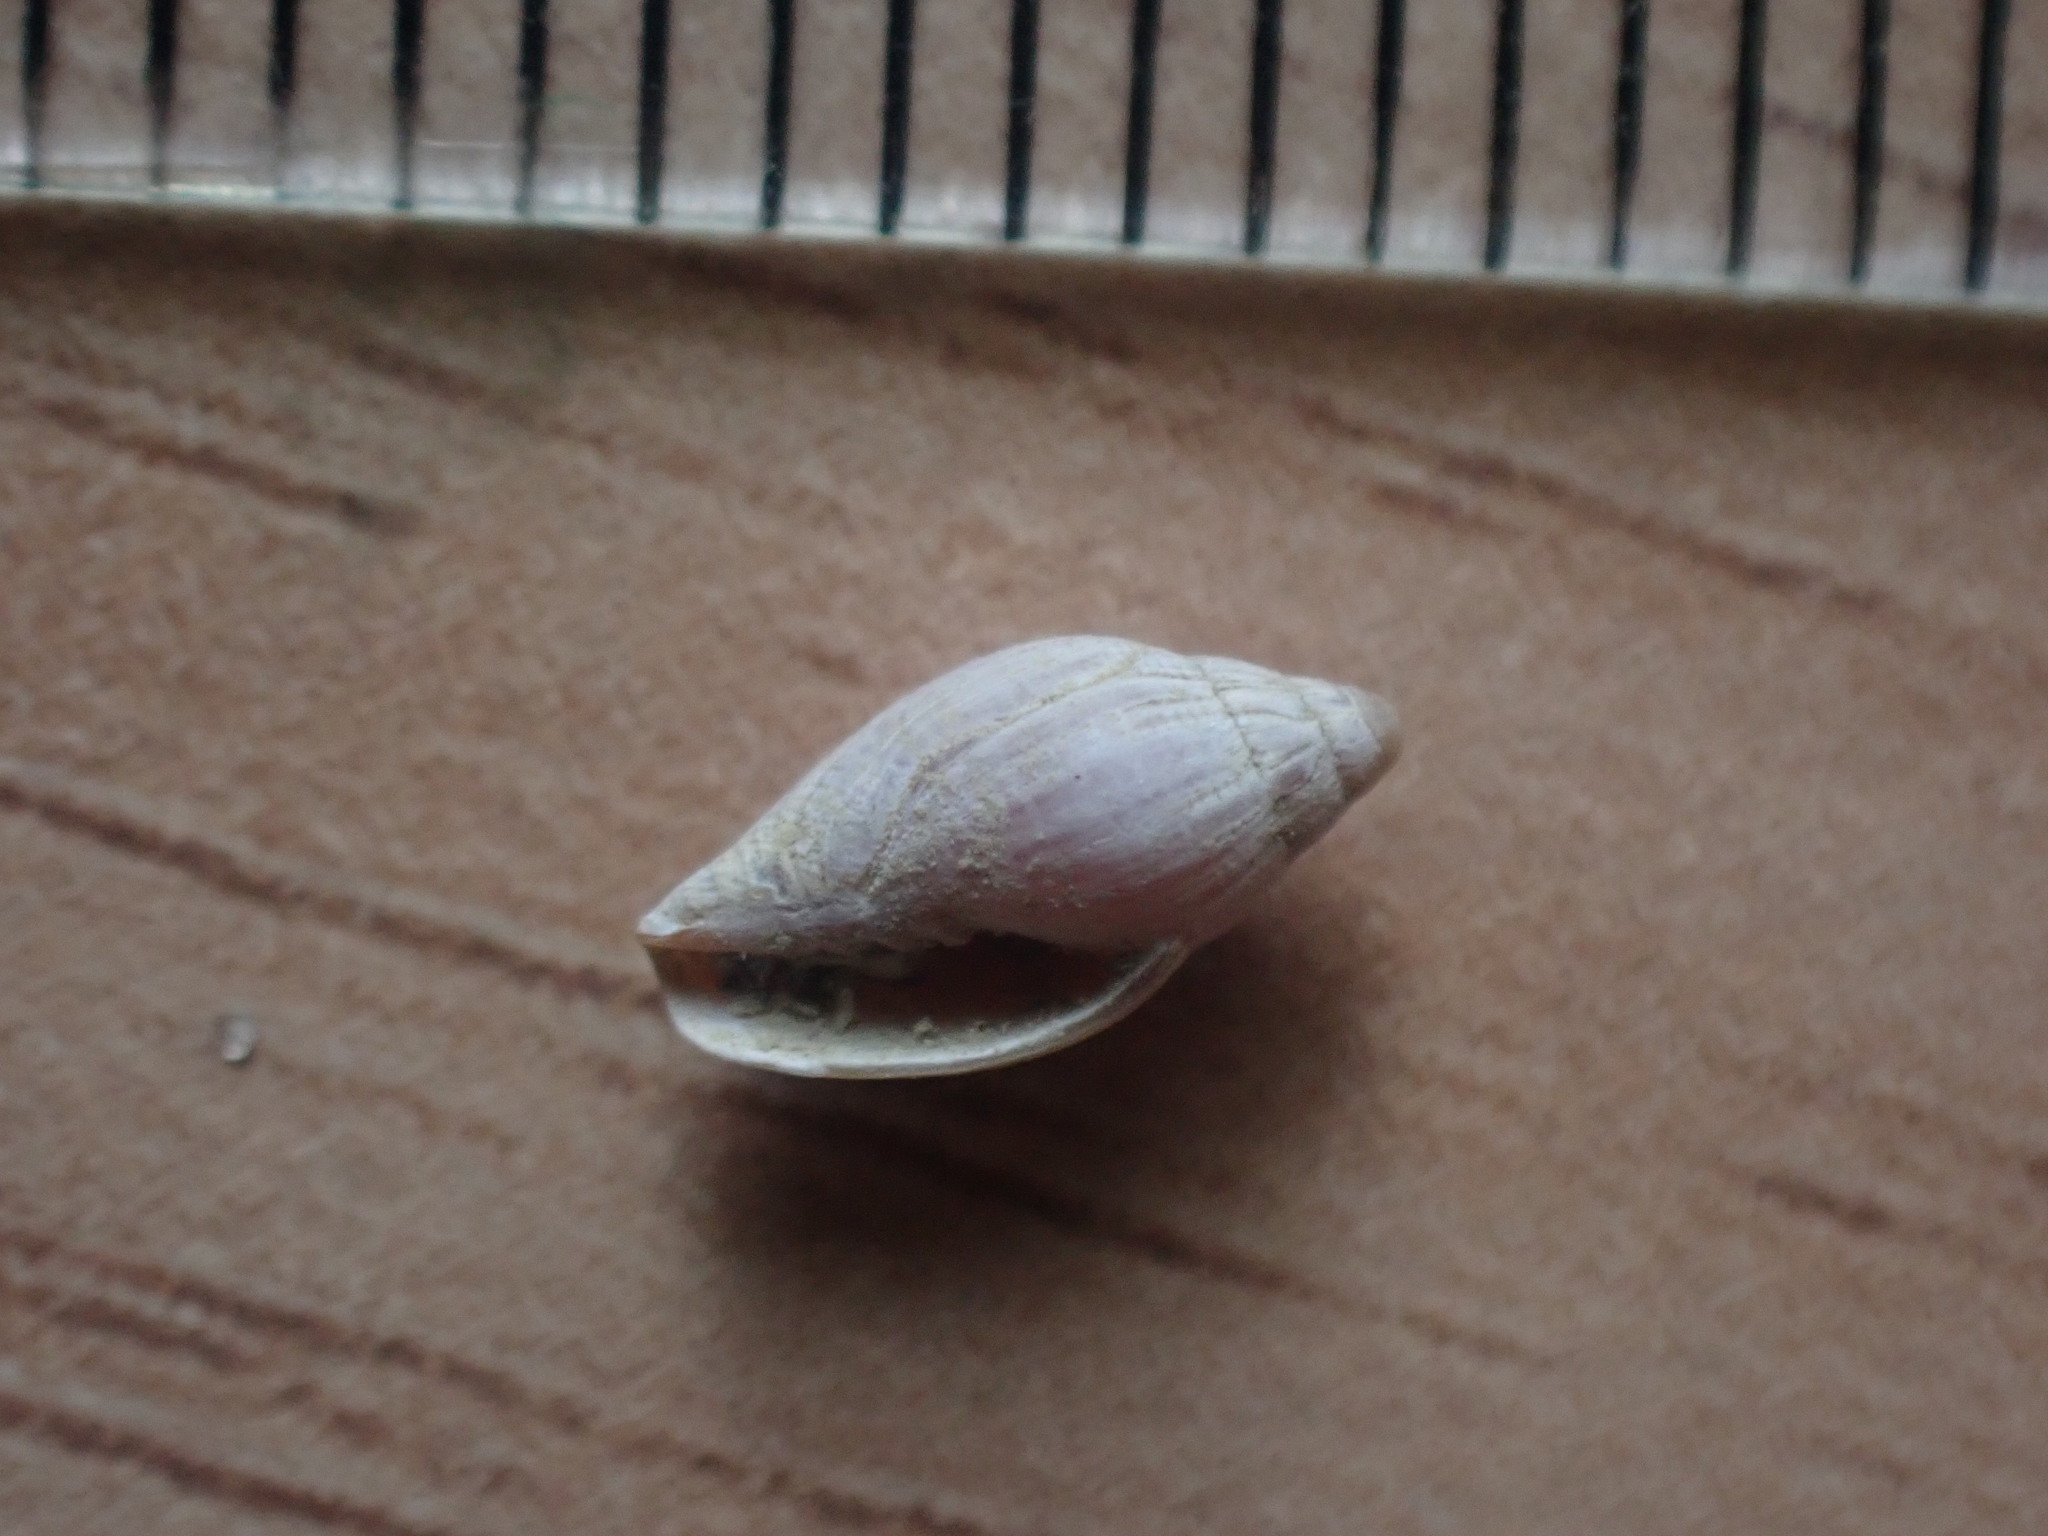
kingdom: Animalia
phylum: Mollusca
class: Gastropoda
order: Neogastropoda
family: Volutomitridae
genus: Peculator
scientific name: Peculator hedleyi
